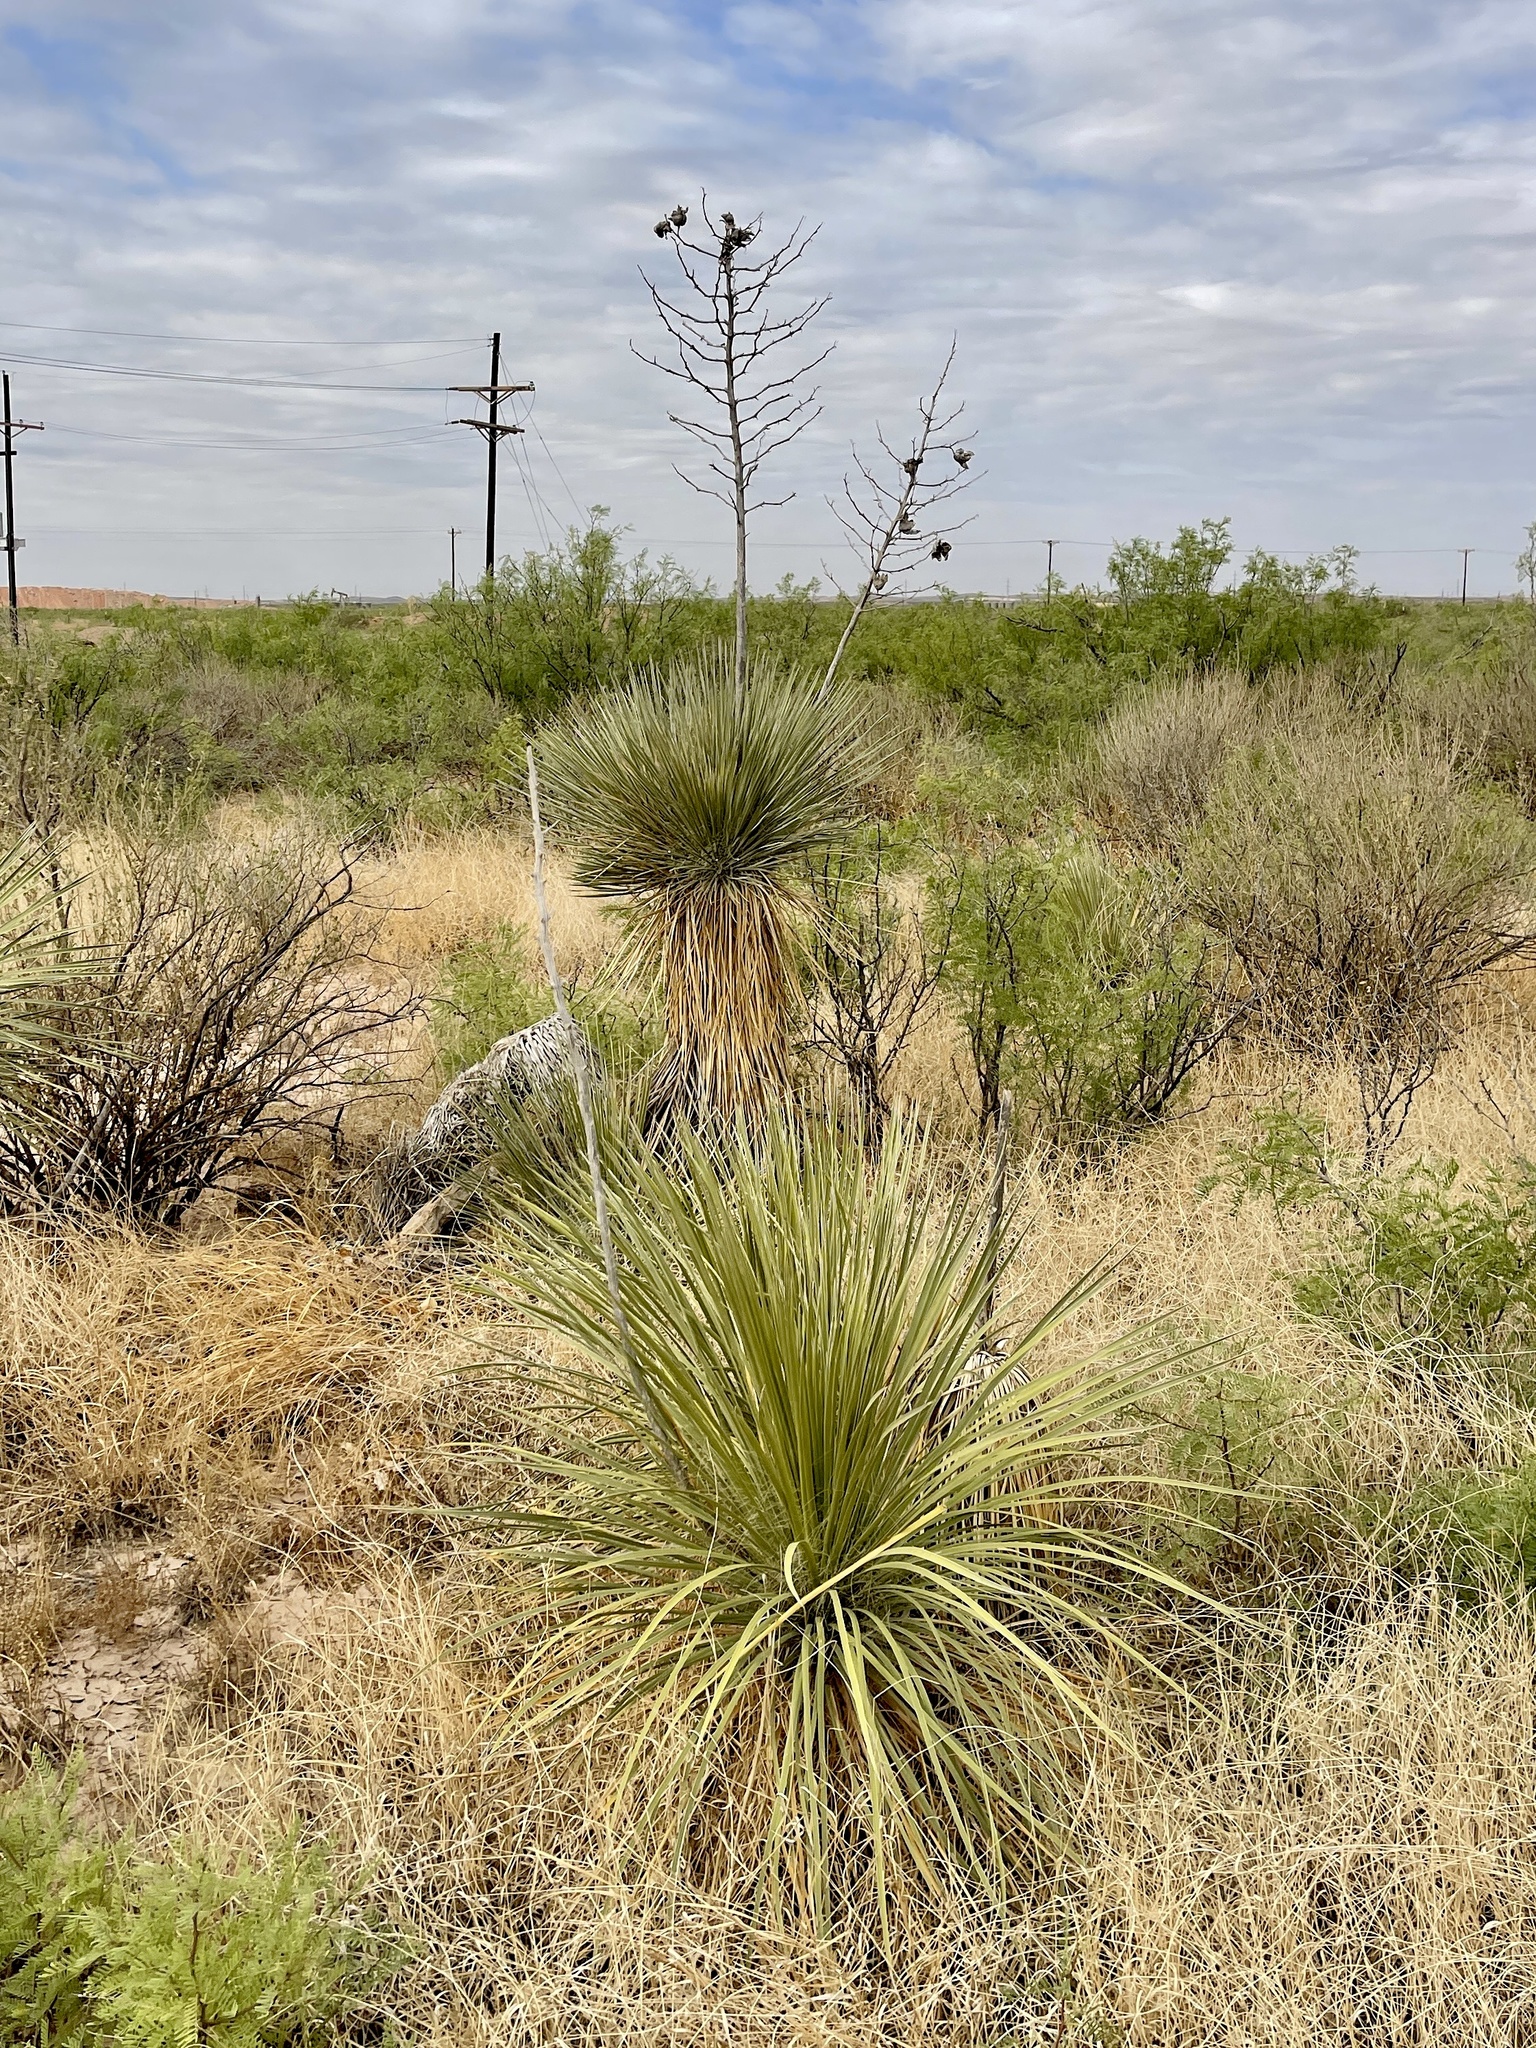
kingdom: Plantae
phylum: Tracheophyta
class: Liliopsida
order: Asparagales
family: Asparagaceae
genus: Yucca
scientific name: Yucca elata
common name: Palmella
